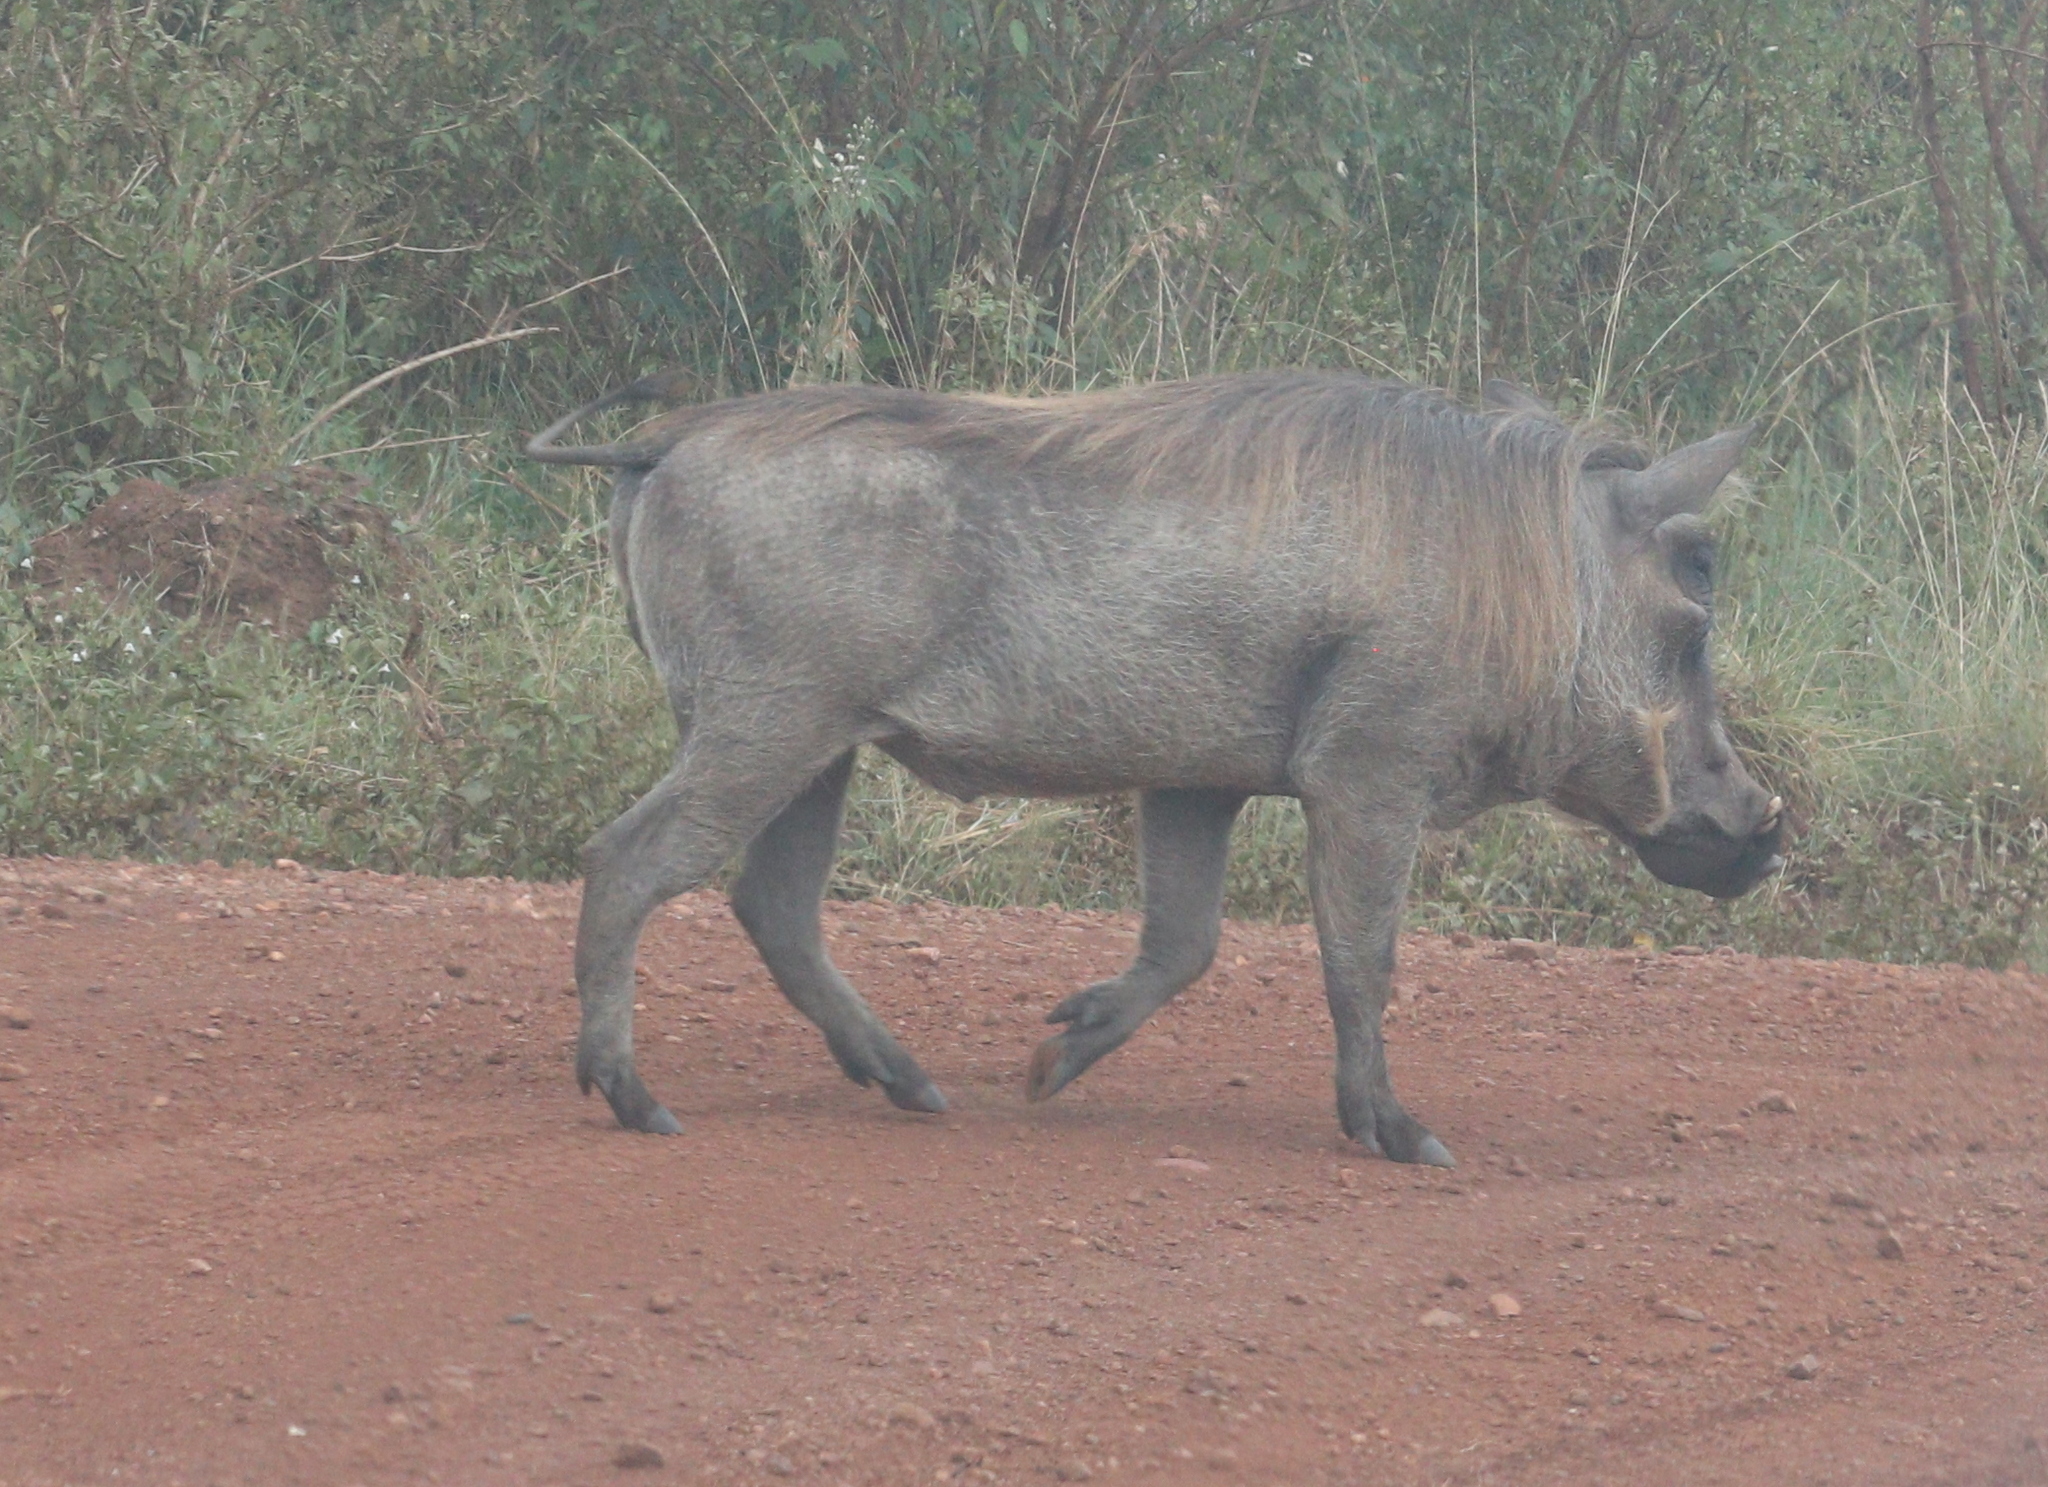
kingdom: Animalia
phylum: Chordata
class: Mammalia
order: Artiodactyla
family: Suidae
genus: Phacochoerus
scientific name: Phacochoerus africanus
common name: Common warthog
